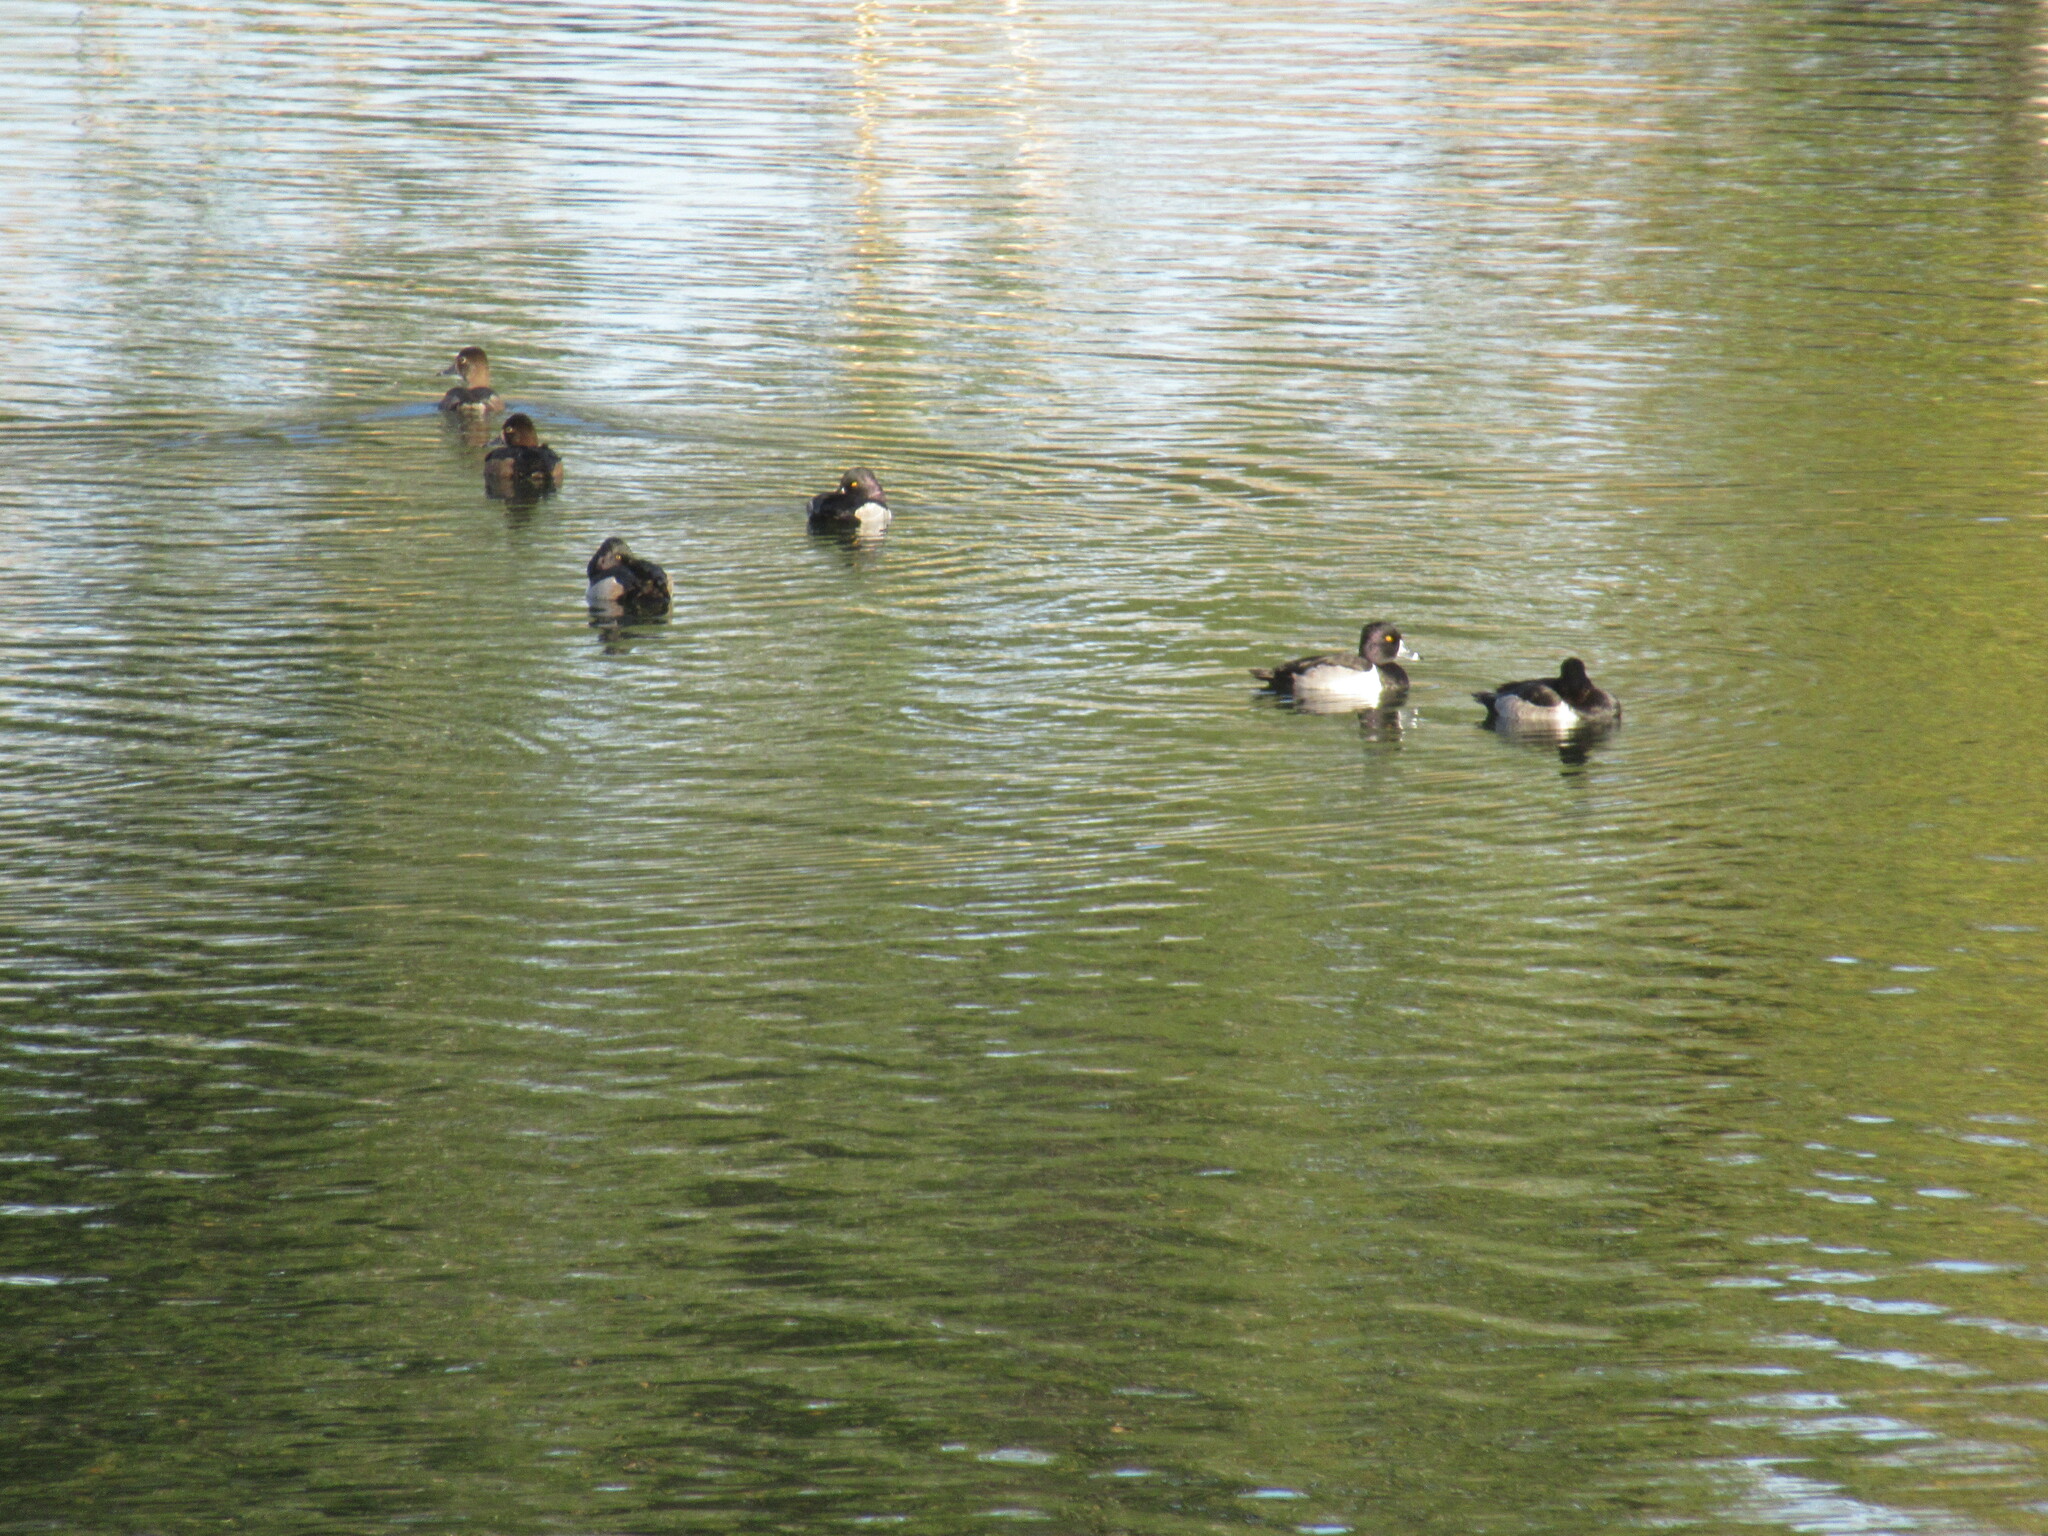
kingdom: Animalia
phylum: Chordata
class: Aves
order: Anseriformes
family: Anatidae
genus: Aythya
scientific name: Aythya collaris
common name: Ring-necked duck
